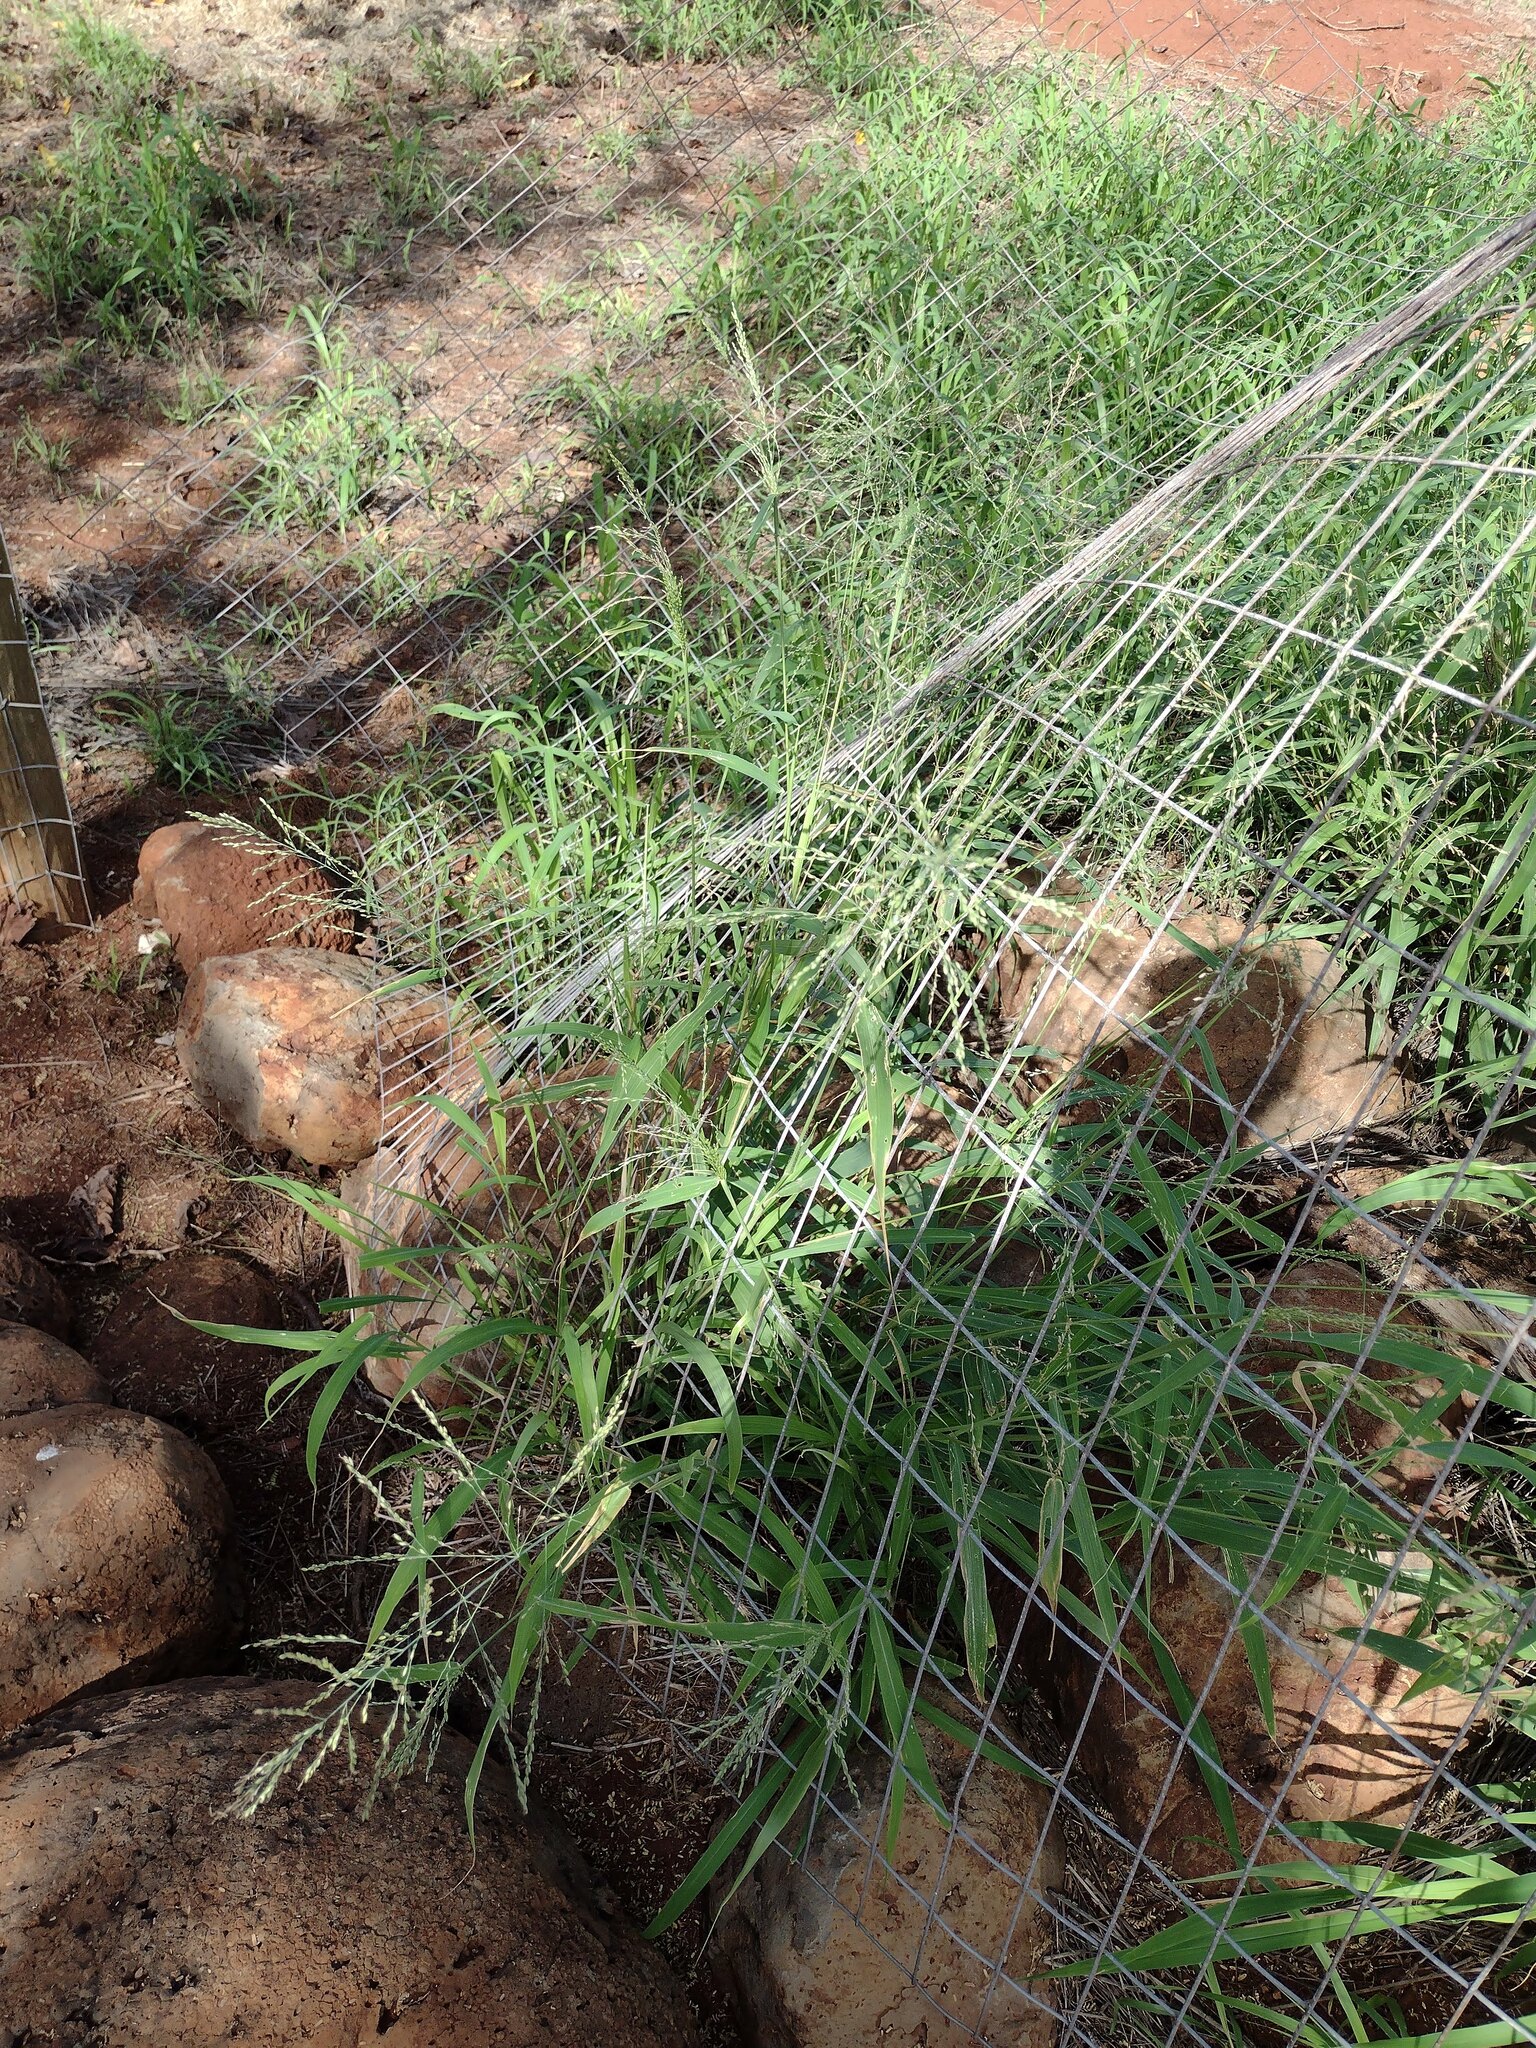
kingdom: Plantae
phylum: Tracheophyta
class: Liliopsida
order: Poales
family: Poaceae
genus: Megathyrsus
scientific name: Megathyrsus maximus
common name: Guineagrass
